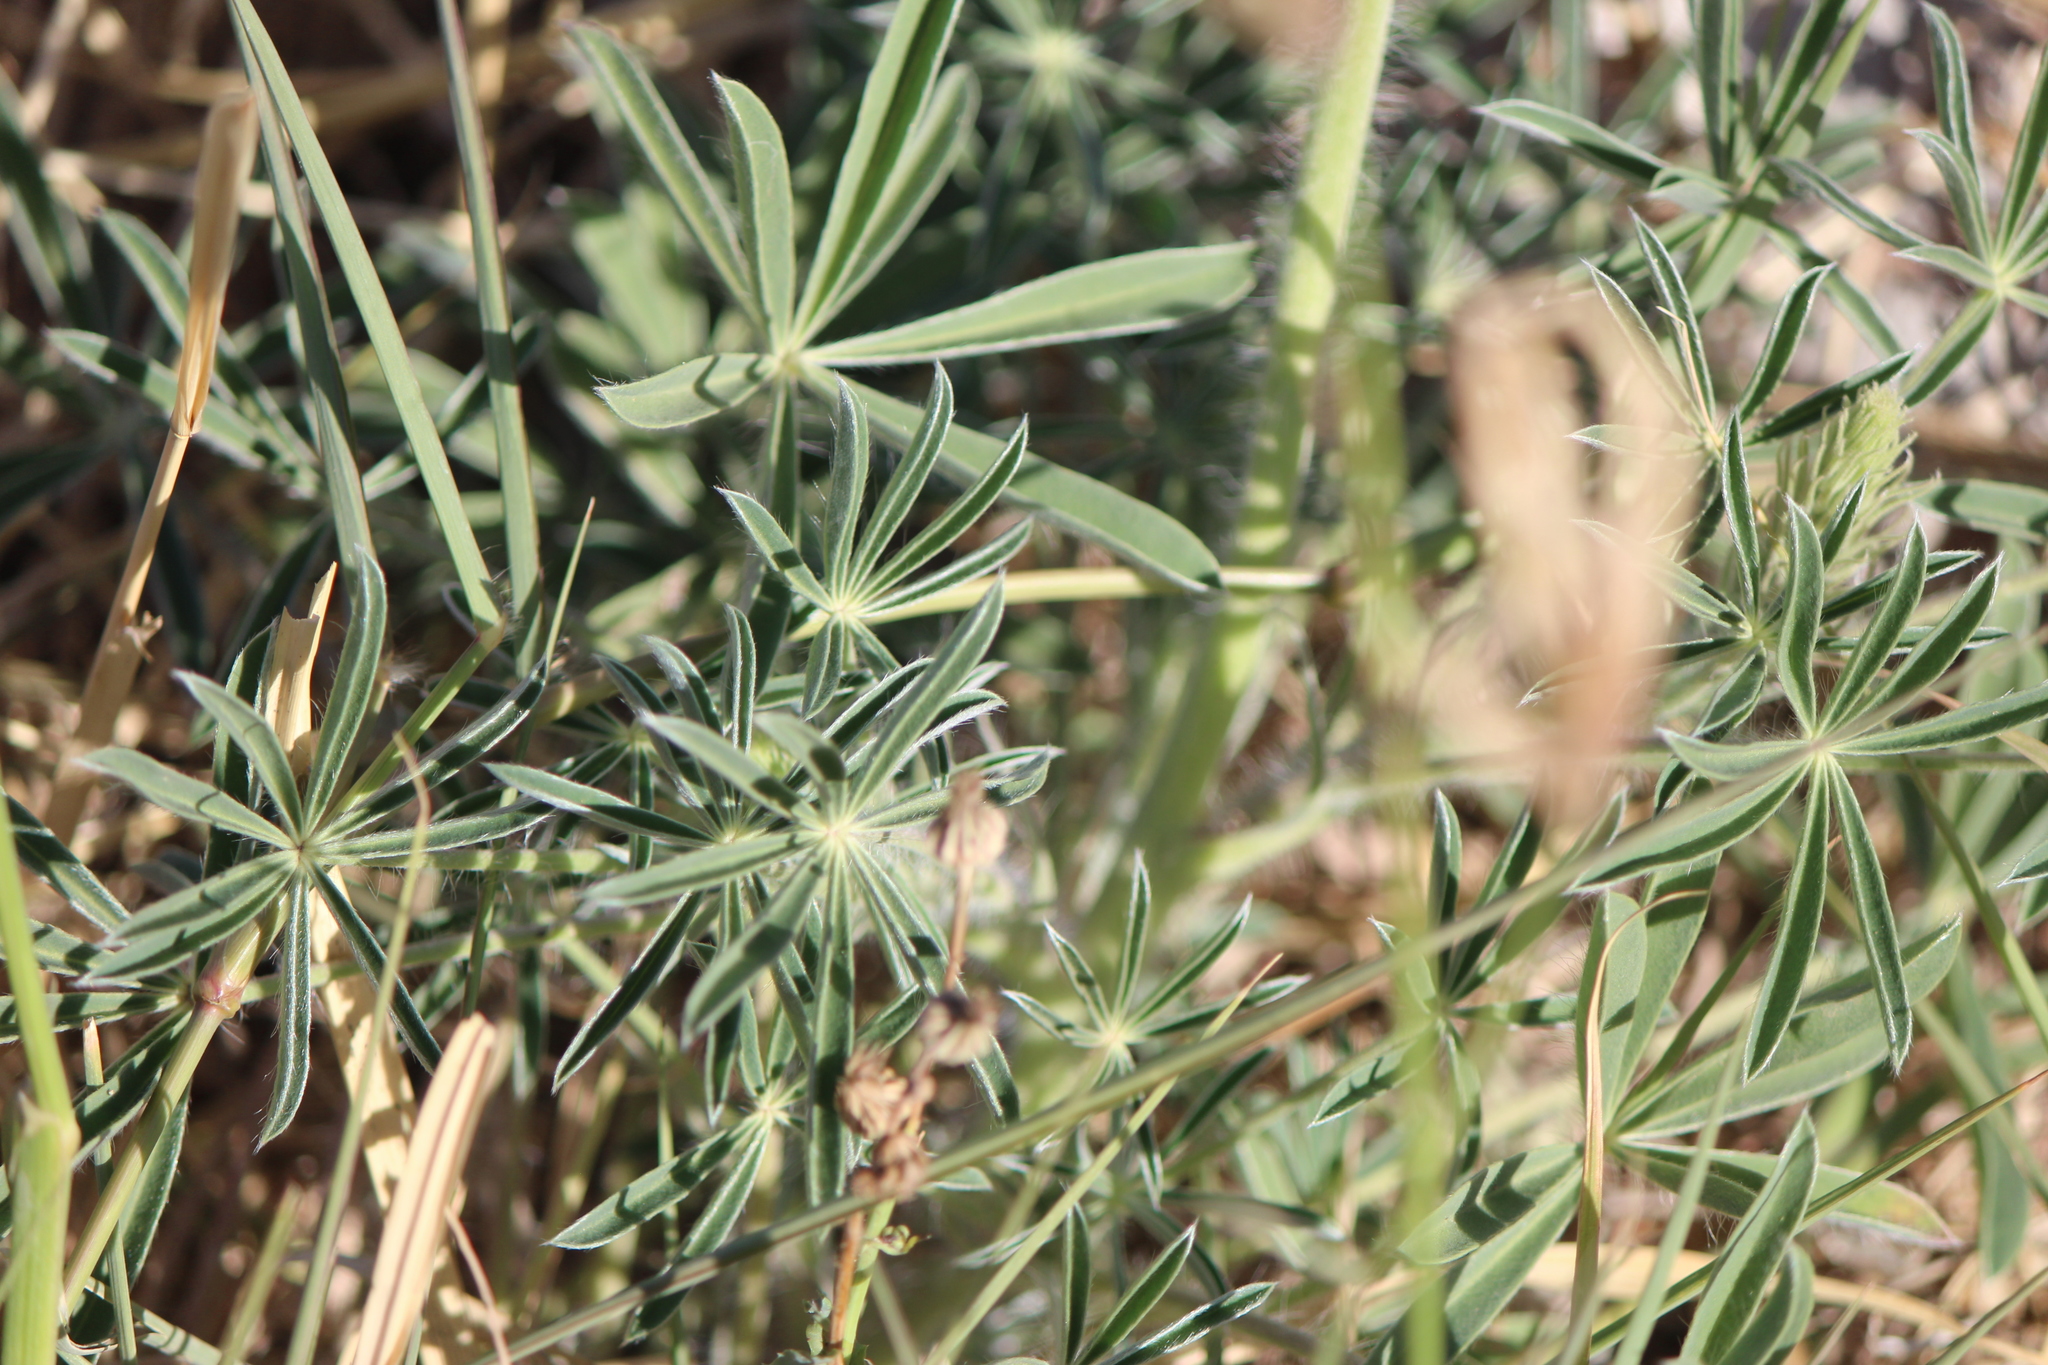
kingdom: Plantae
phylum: Tracheophyta
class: Magnoliopsida
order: Fabales
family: Fabaceae
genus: Lupinus
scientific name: Lupinus montanus
